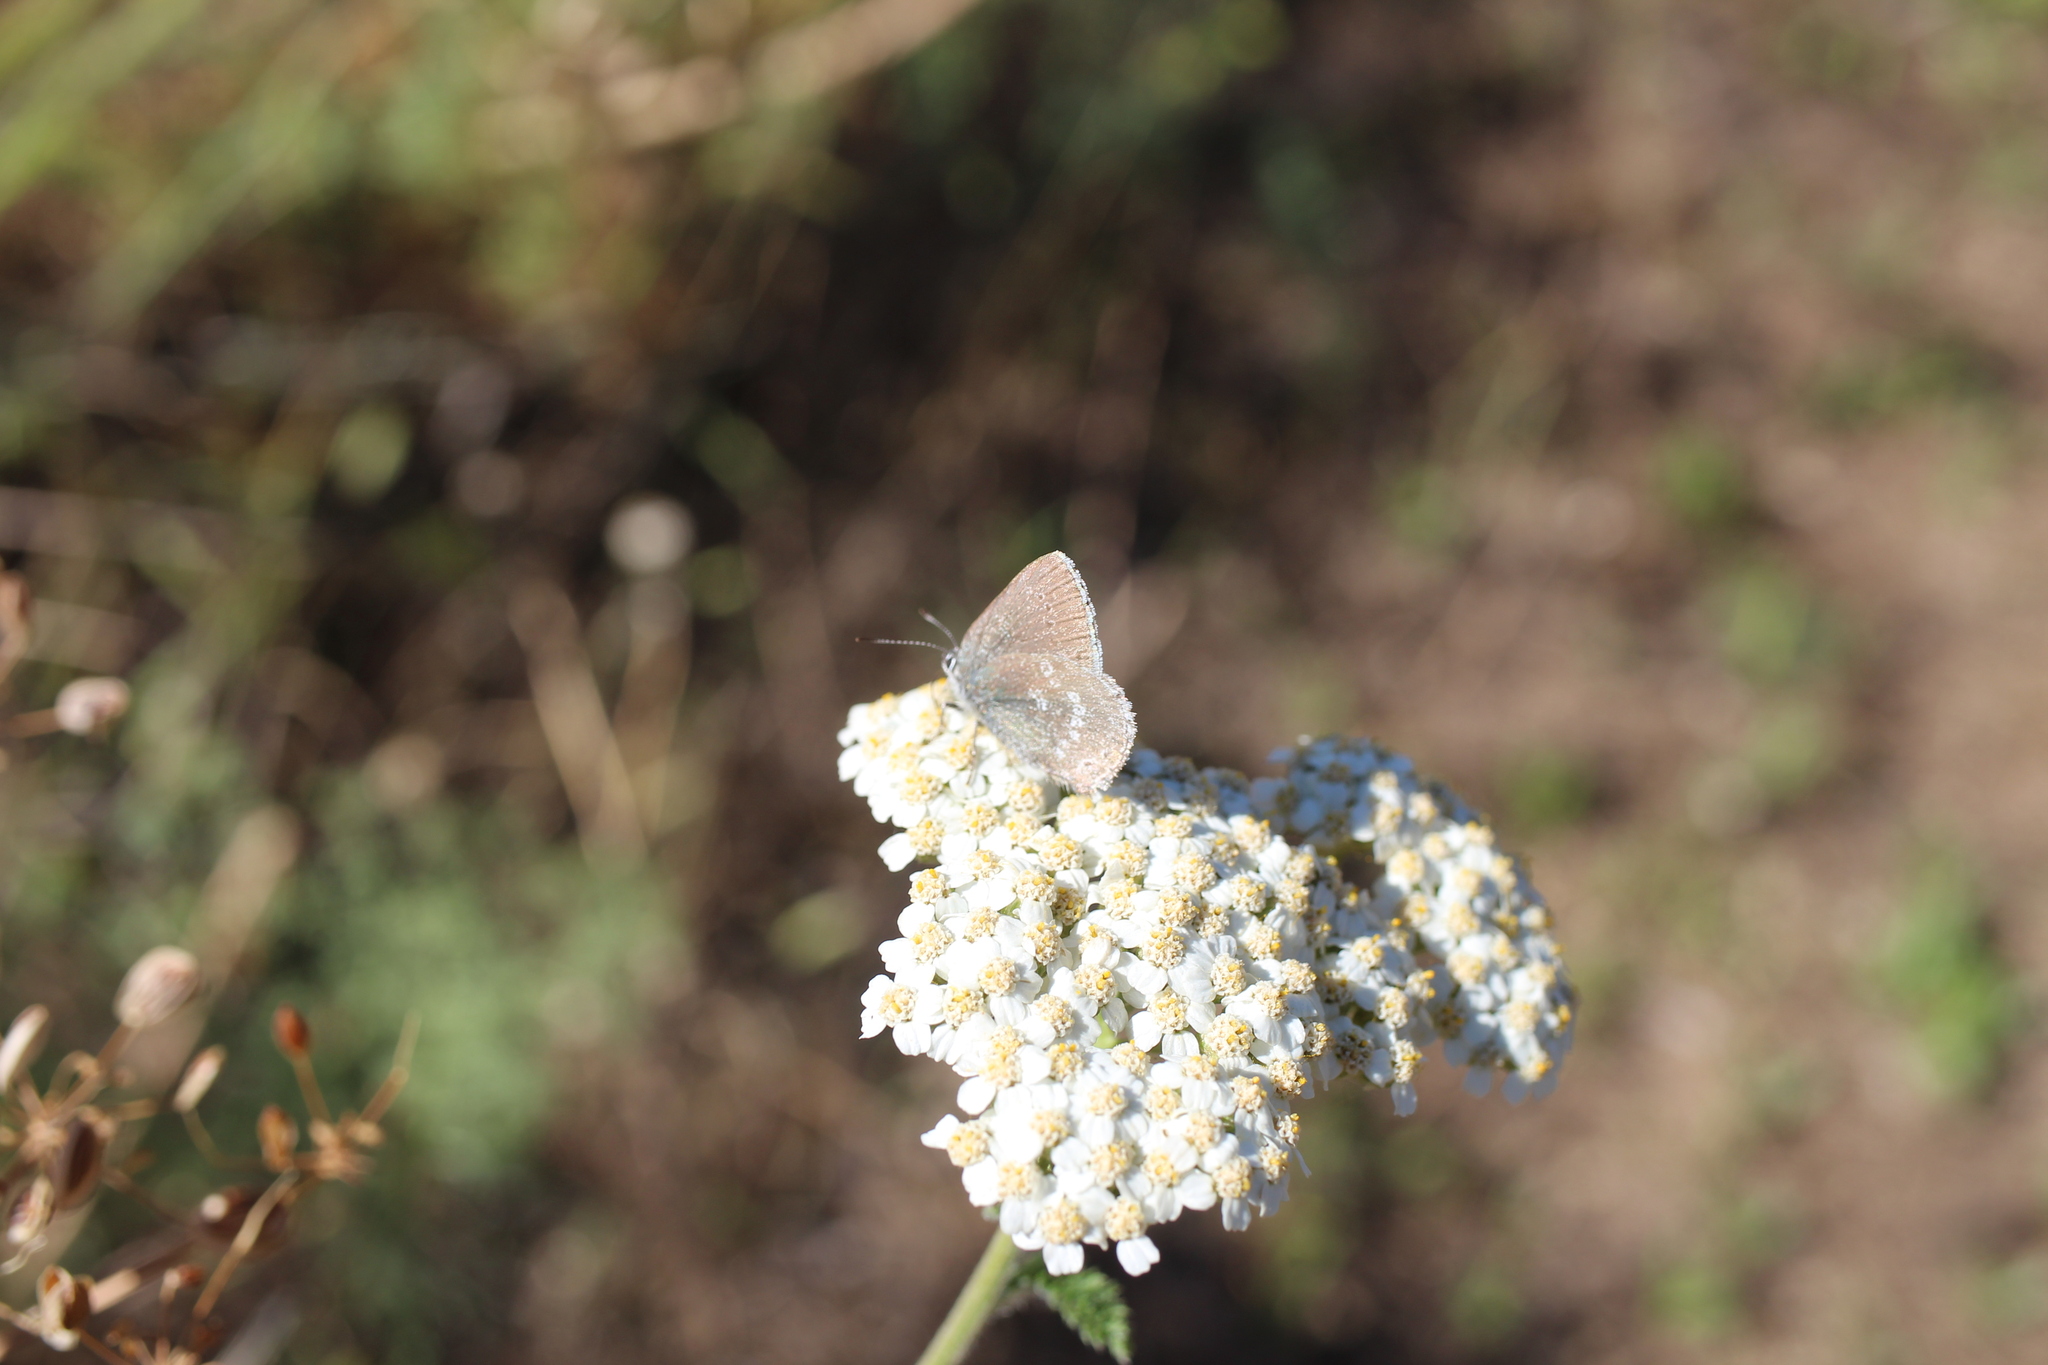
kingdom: Animalia
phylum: Arthropoda
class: Insecta
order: Lepidoptera
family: Lycaenidae
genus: Satyrium
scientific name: Satyrium fuliginosa
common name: Western sooty hairstreak
